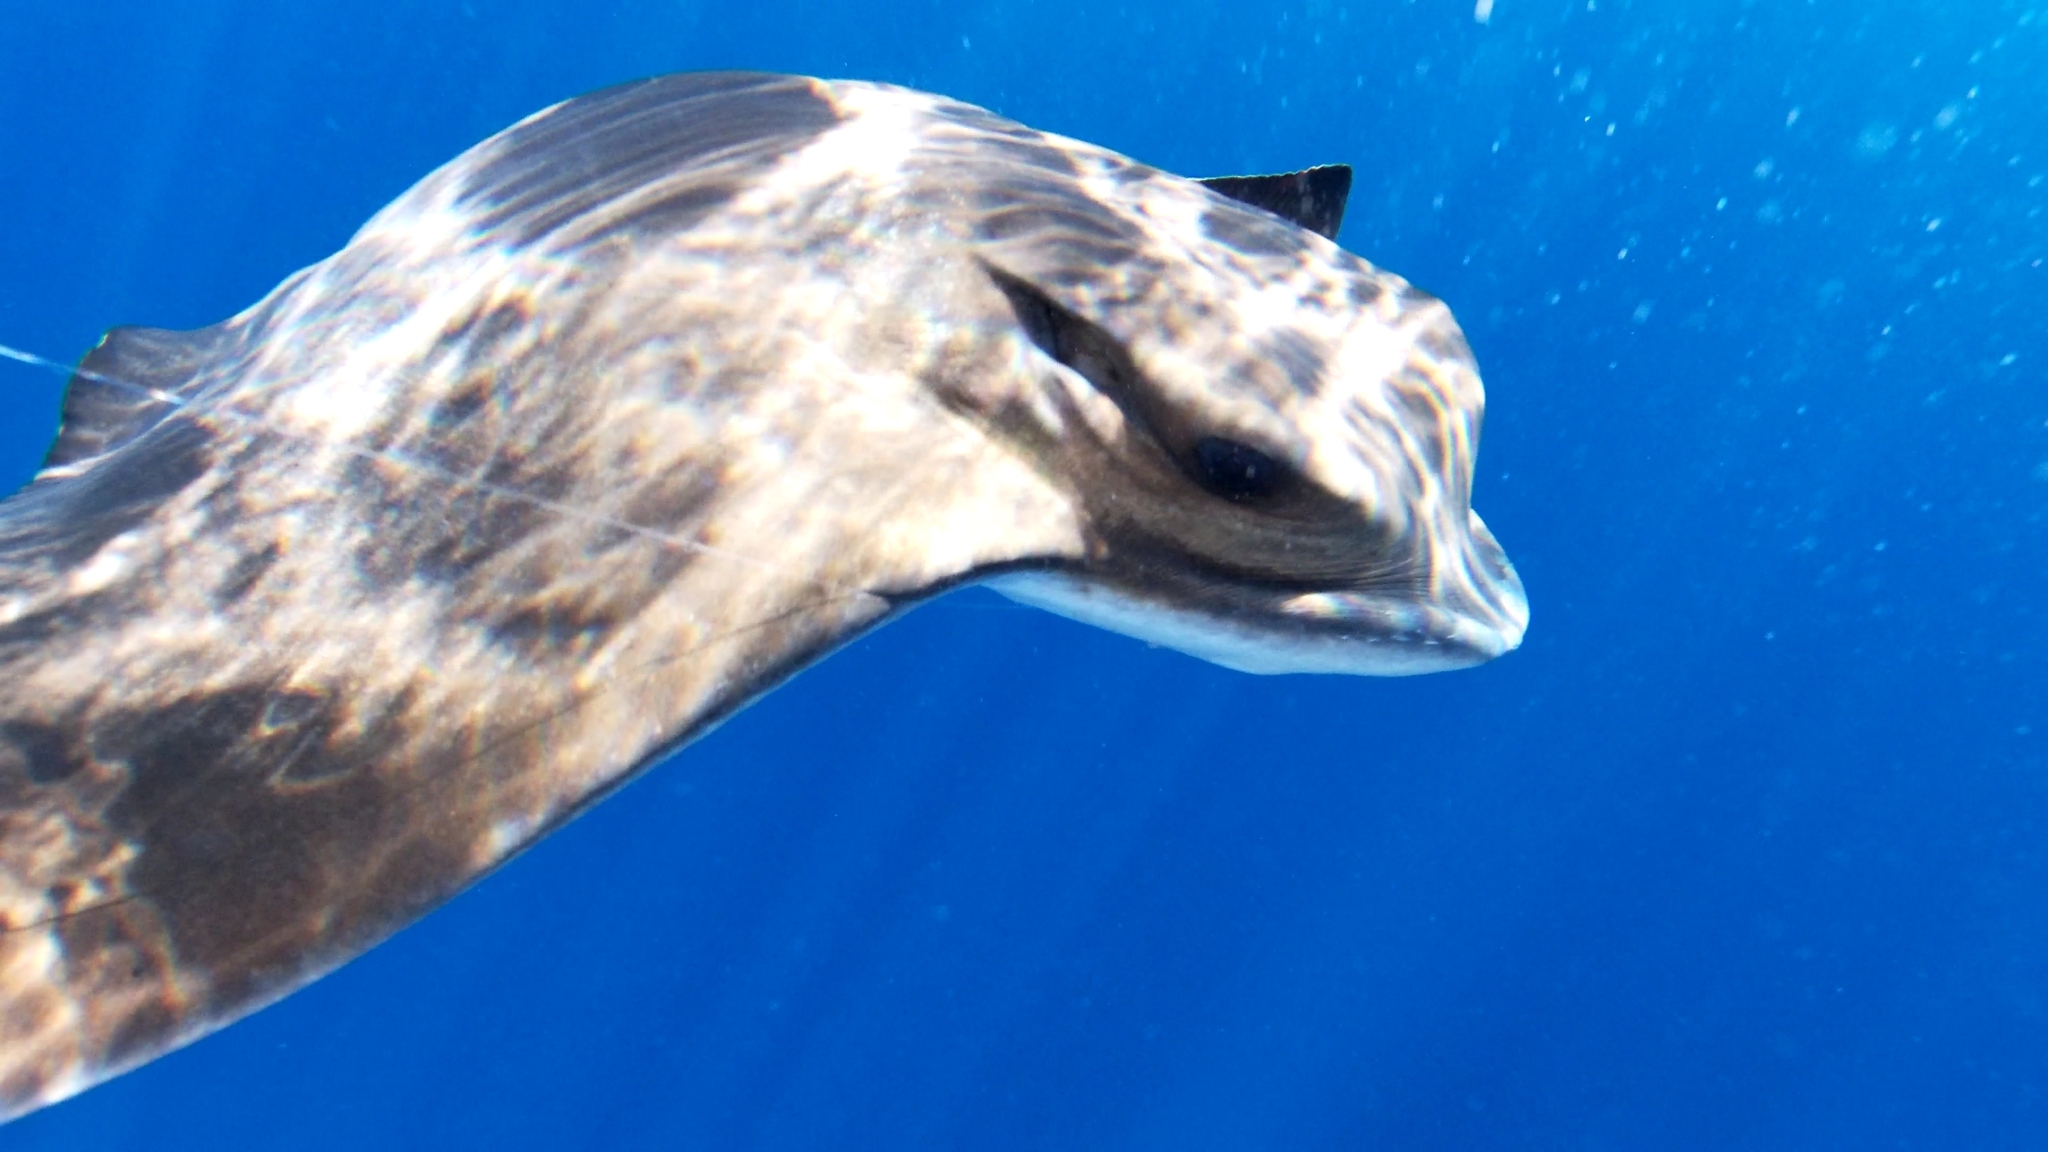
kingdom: Animalia
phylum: Chordata
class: Elasmobranchii
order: Myliobatiformes
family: Myliobatidae
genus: Myliobatis
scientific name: Myliobatis aquila
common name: Eagle ray
